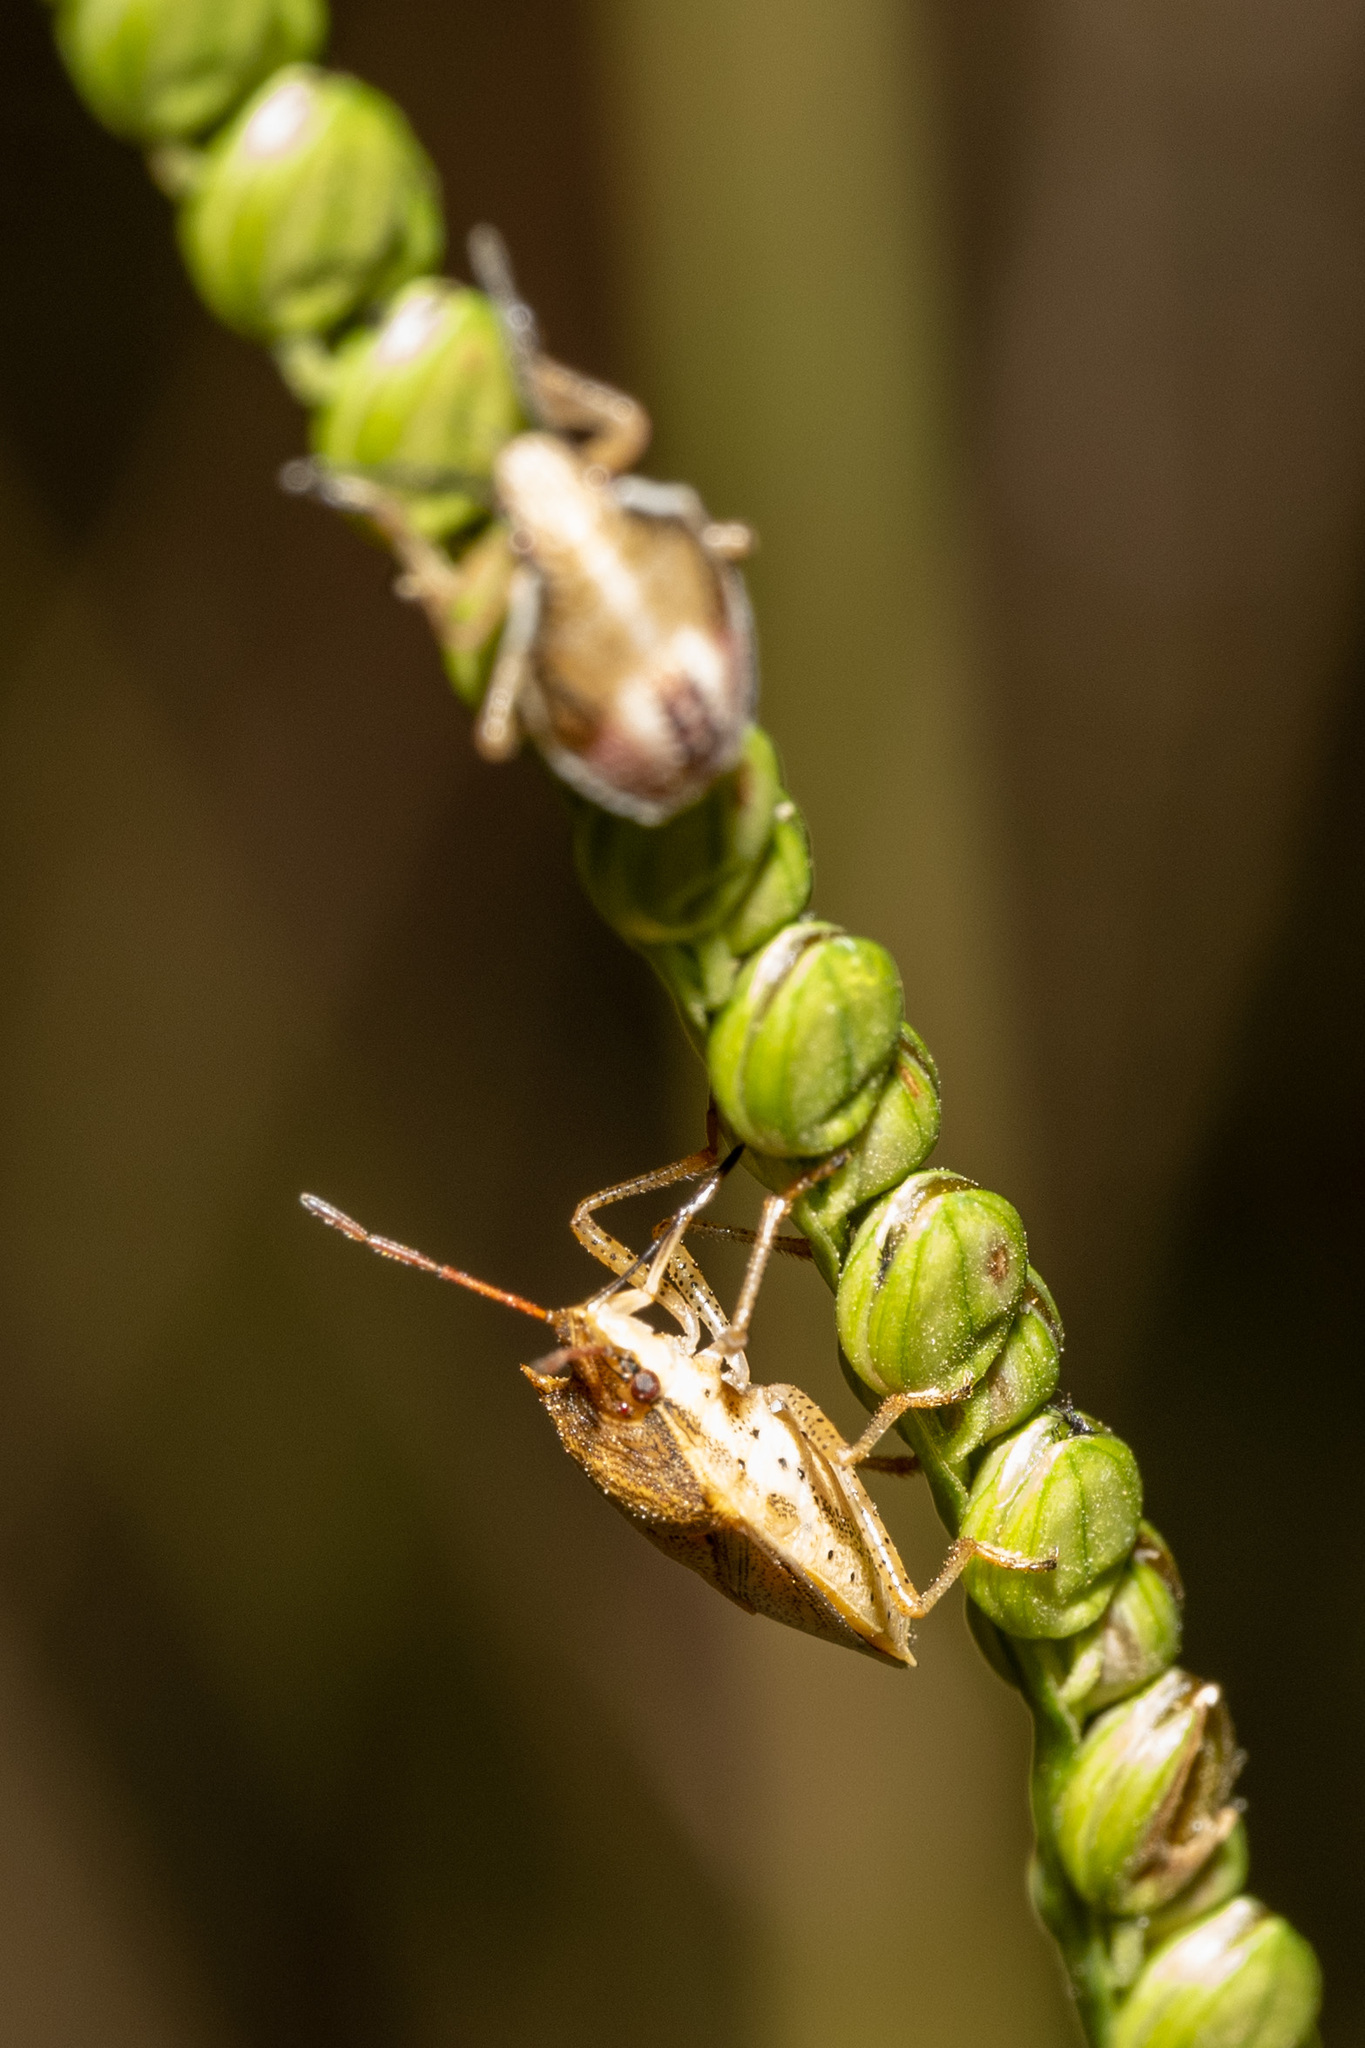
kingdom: Animalia
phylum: Arthropoda
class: Insecta
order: Hemiptera
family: Pentatomidae
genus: Oebalus
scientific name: Oebalus pugnax
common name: Rice stink bug
